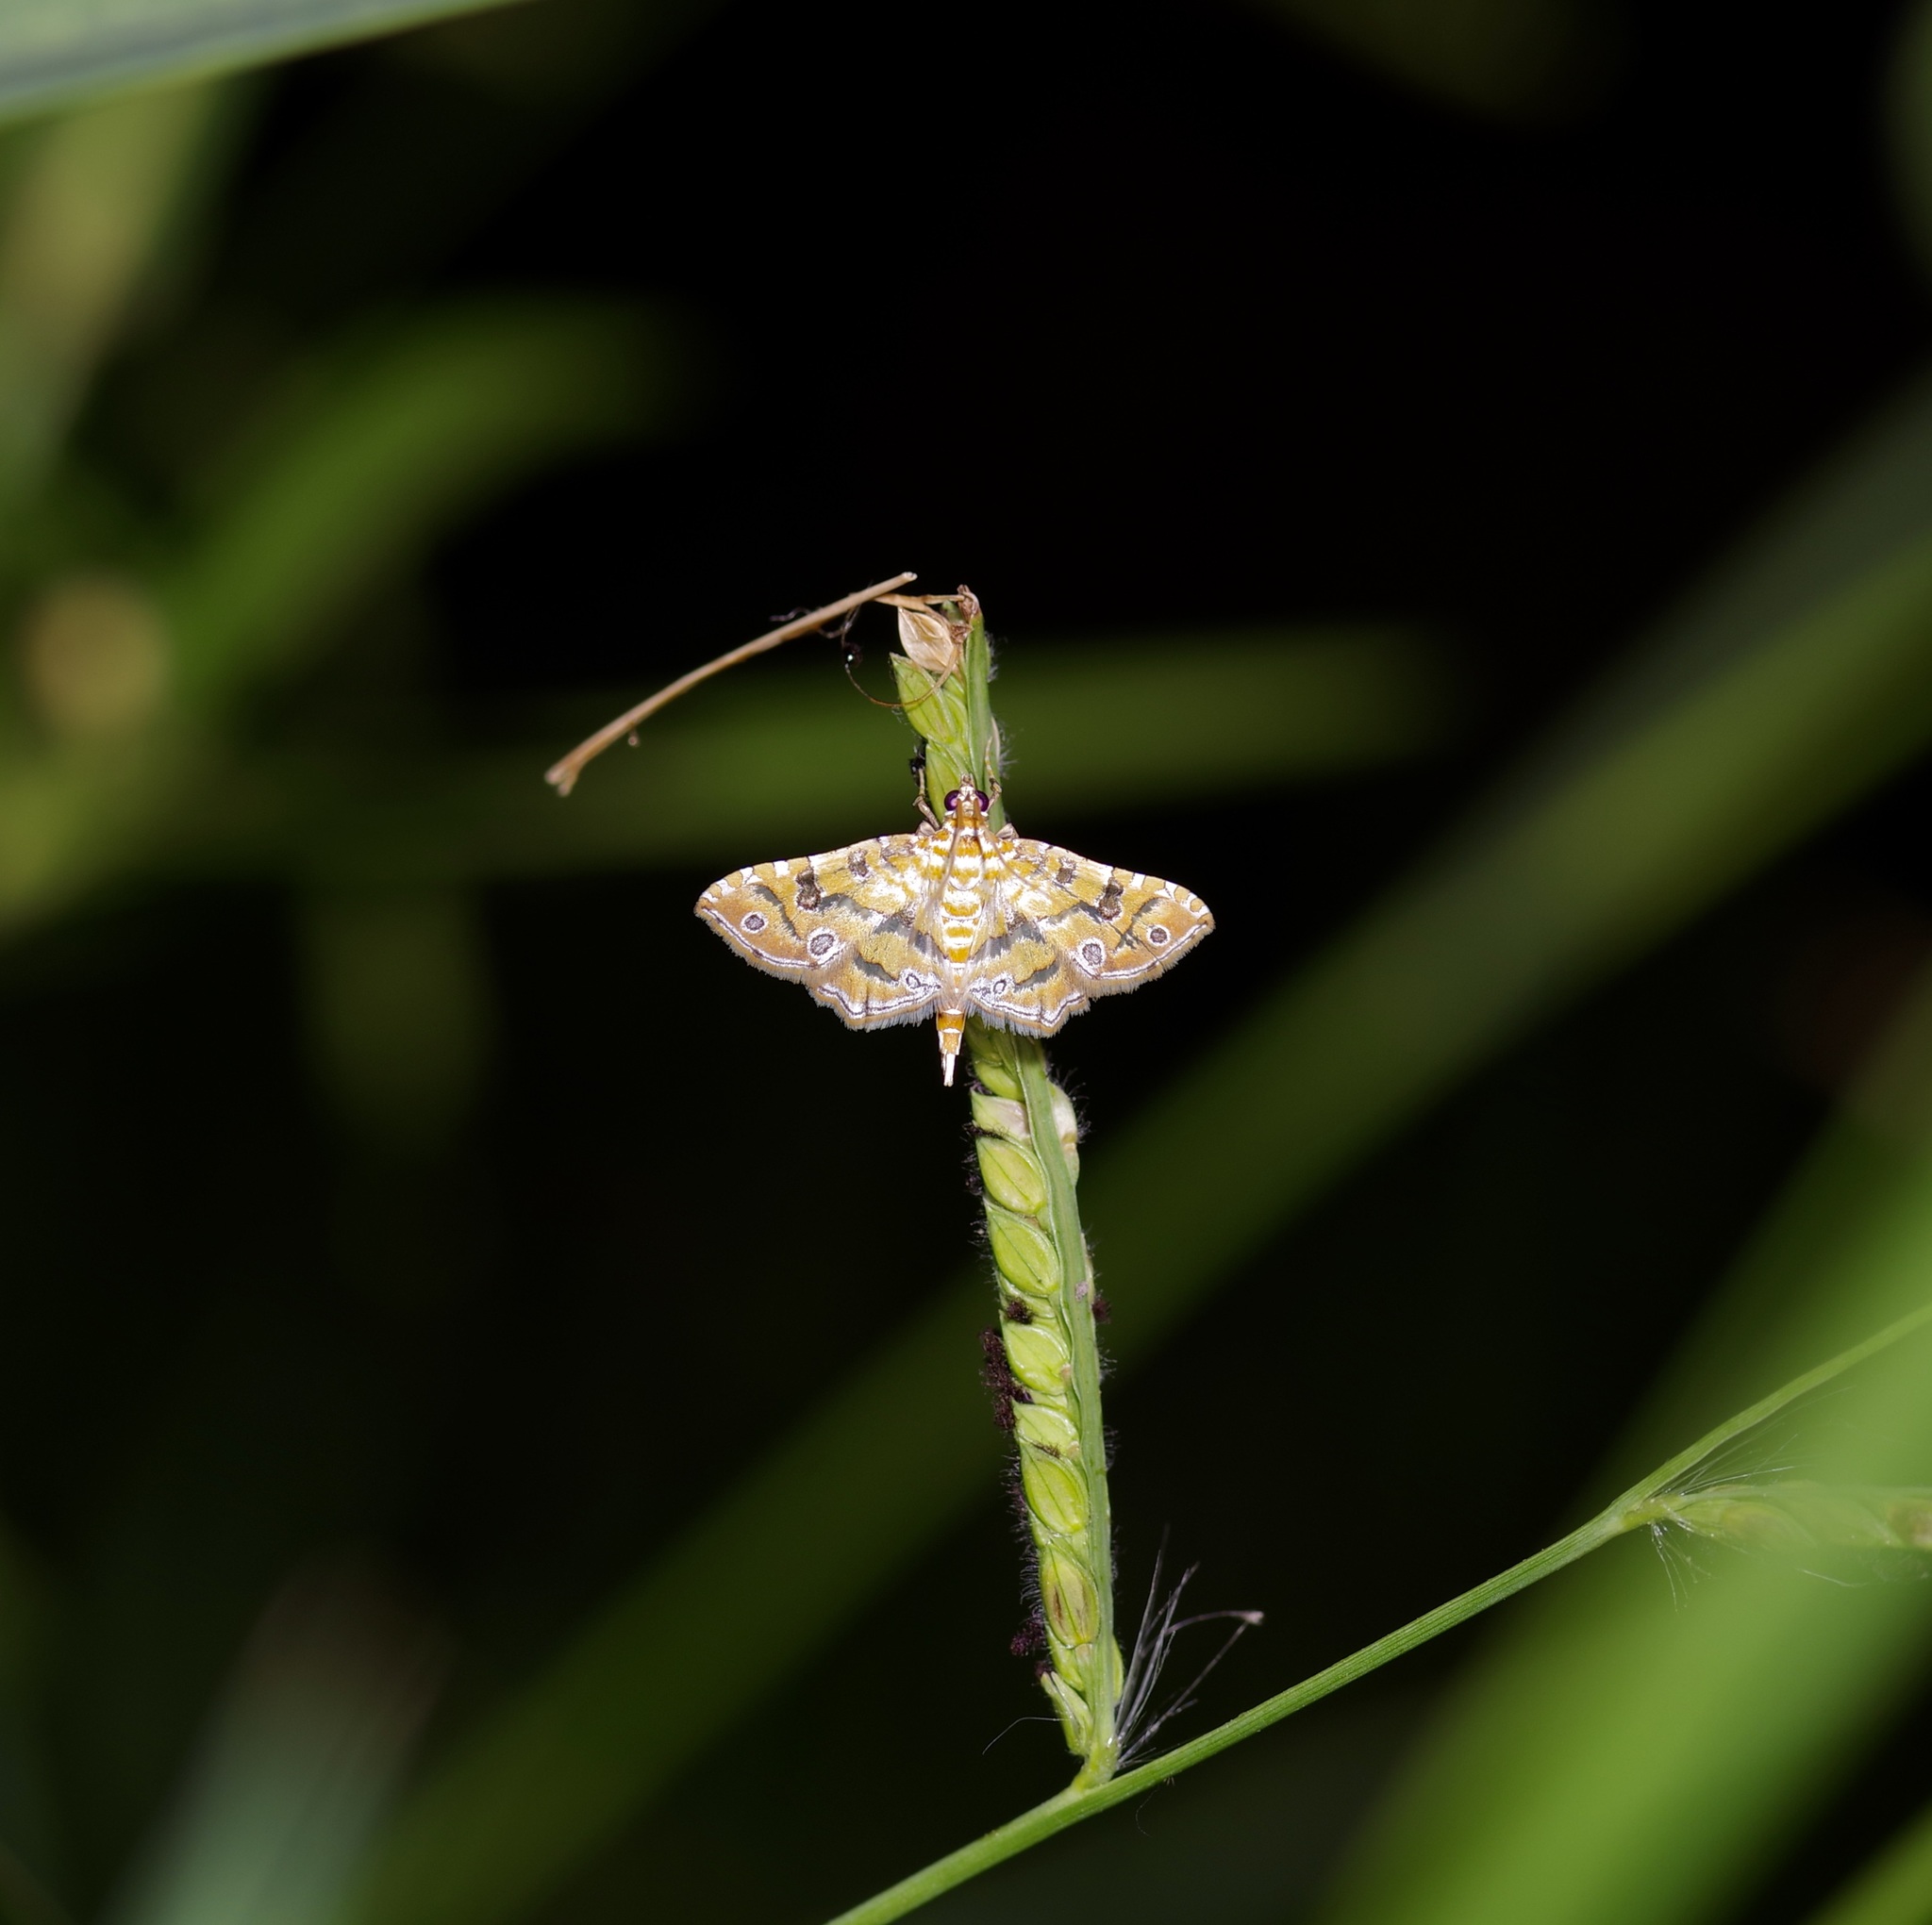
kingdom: Animalia
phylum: Arthropoda
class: Insecta
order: Lepidoptera
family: Crambidae
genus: Ommatospila
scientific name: Ommatospila narcaeusalis
